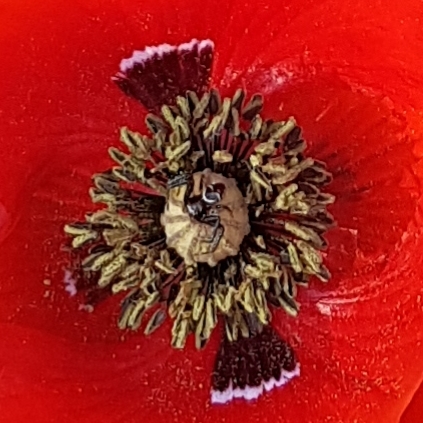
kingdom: Animalia
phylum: Arthropoda
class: Arachnida
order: Araneae
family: Thomisidae
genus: Synema
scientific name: Synema globosum
